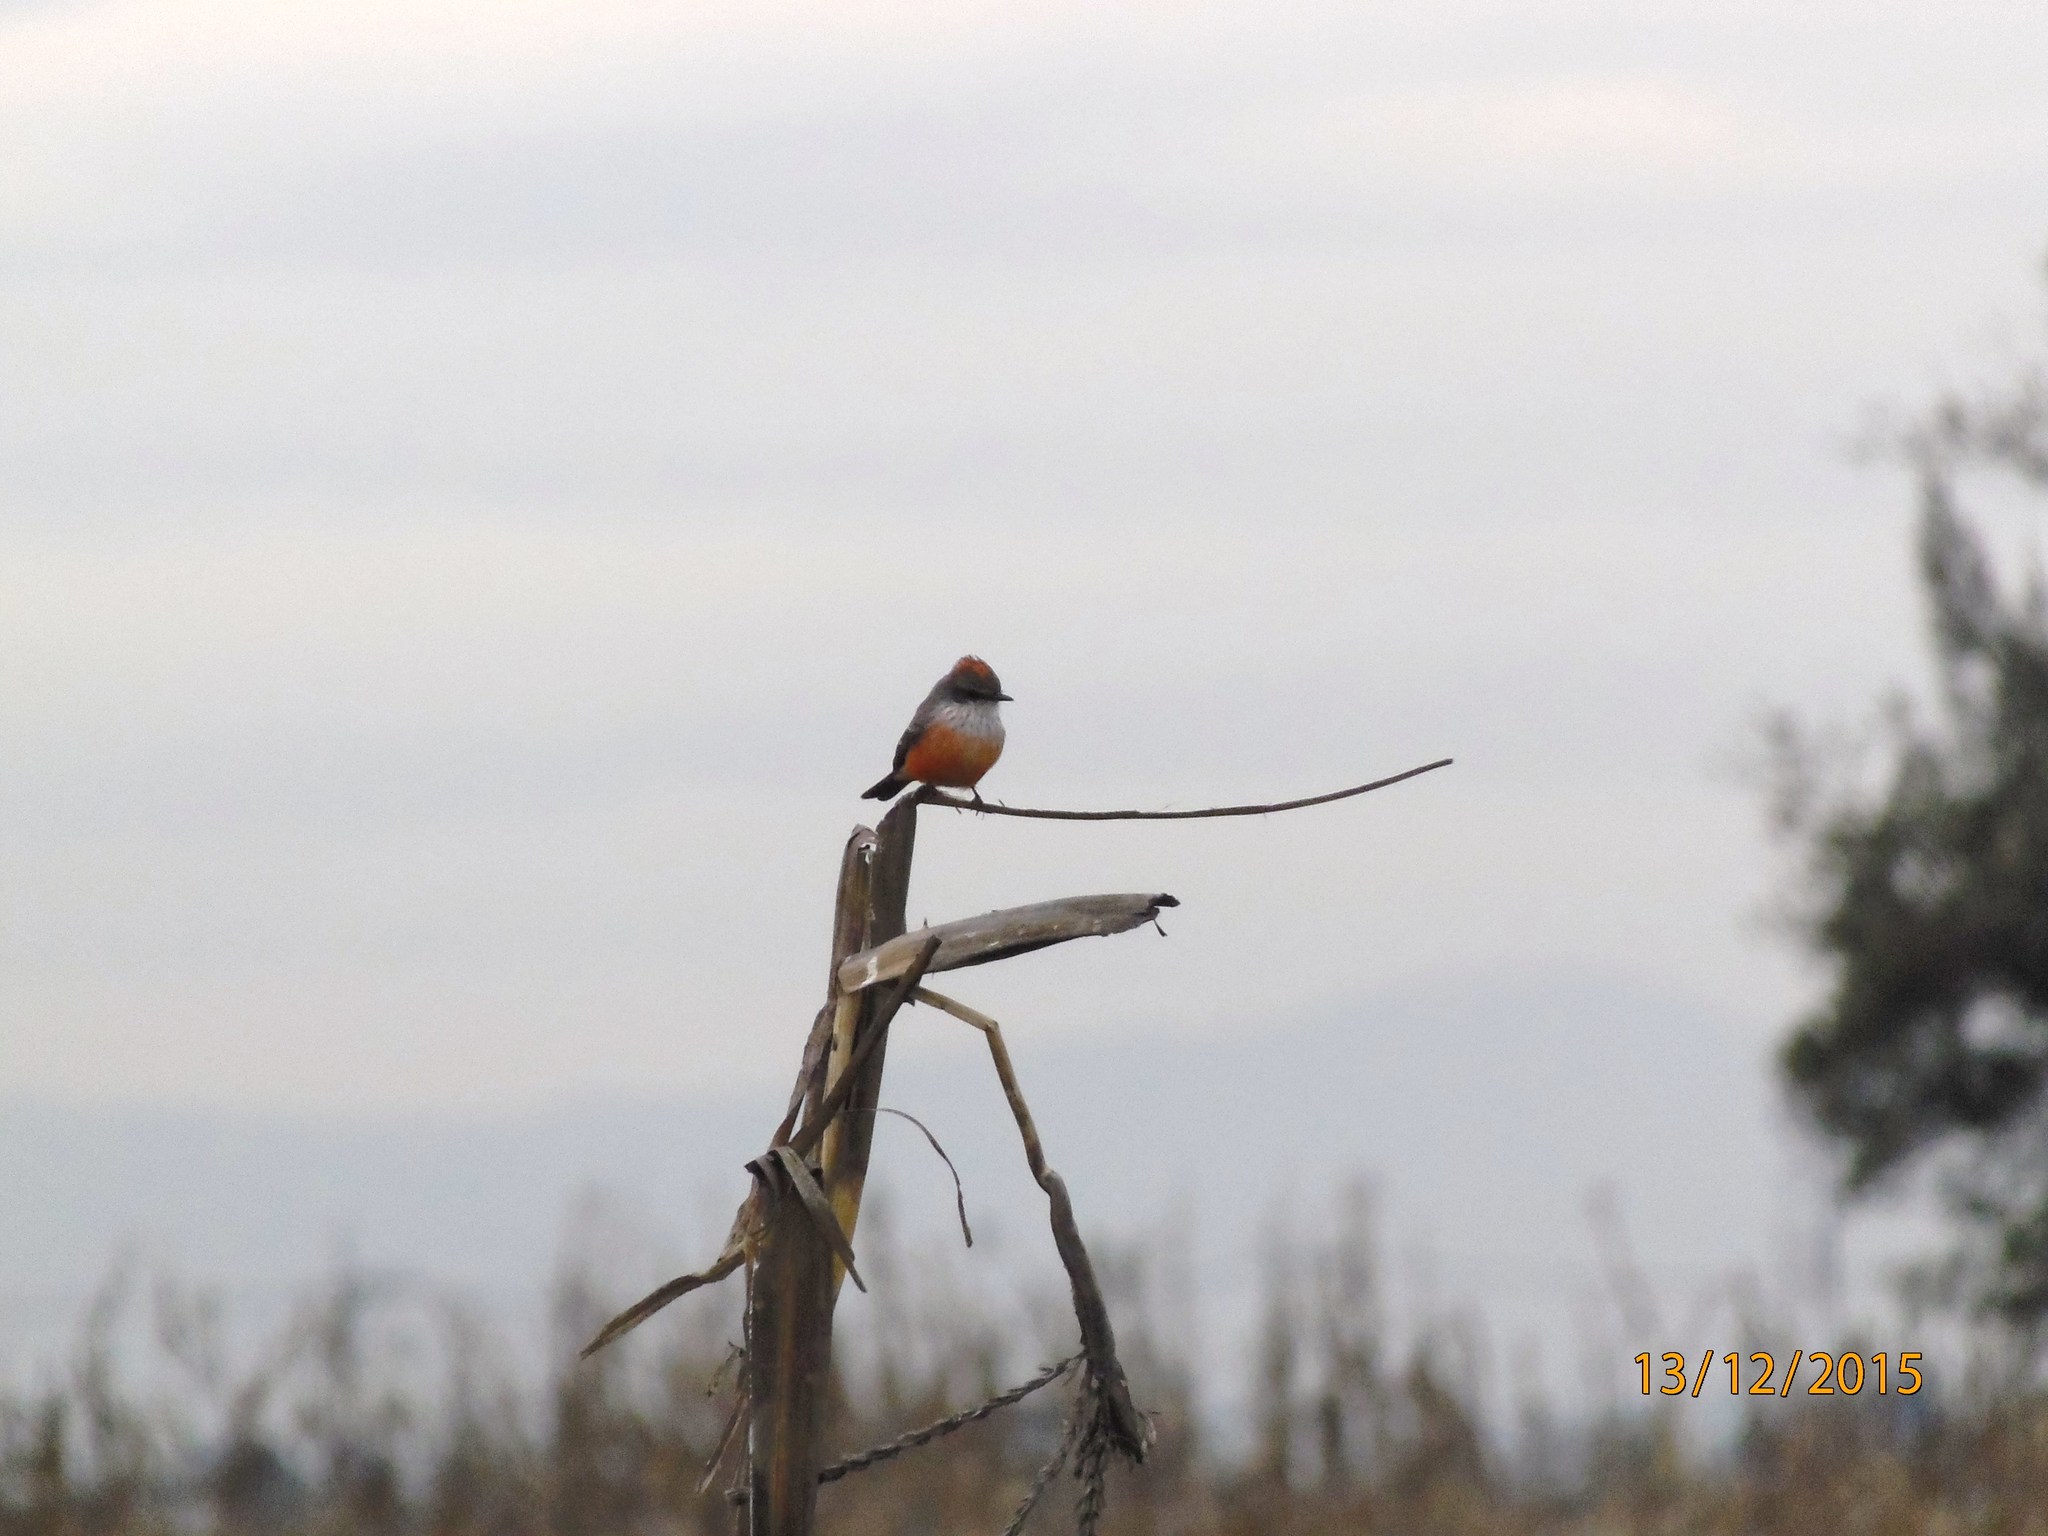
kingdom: Animalia
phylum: Chordata
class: Aves
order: Passeriformes
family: Tyrannidae
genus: Pyrocephalus
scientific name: Pyrocephalus rubinus
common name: Vermilion flycatcher
